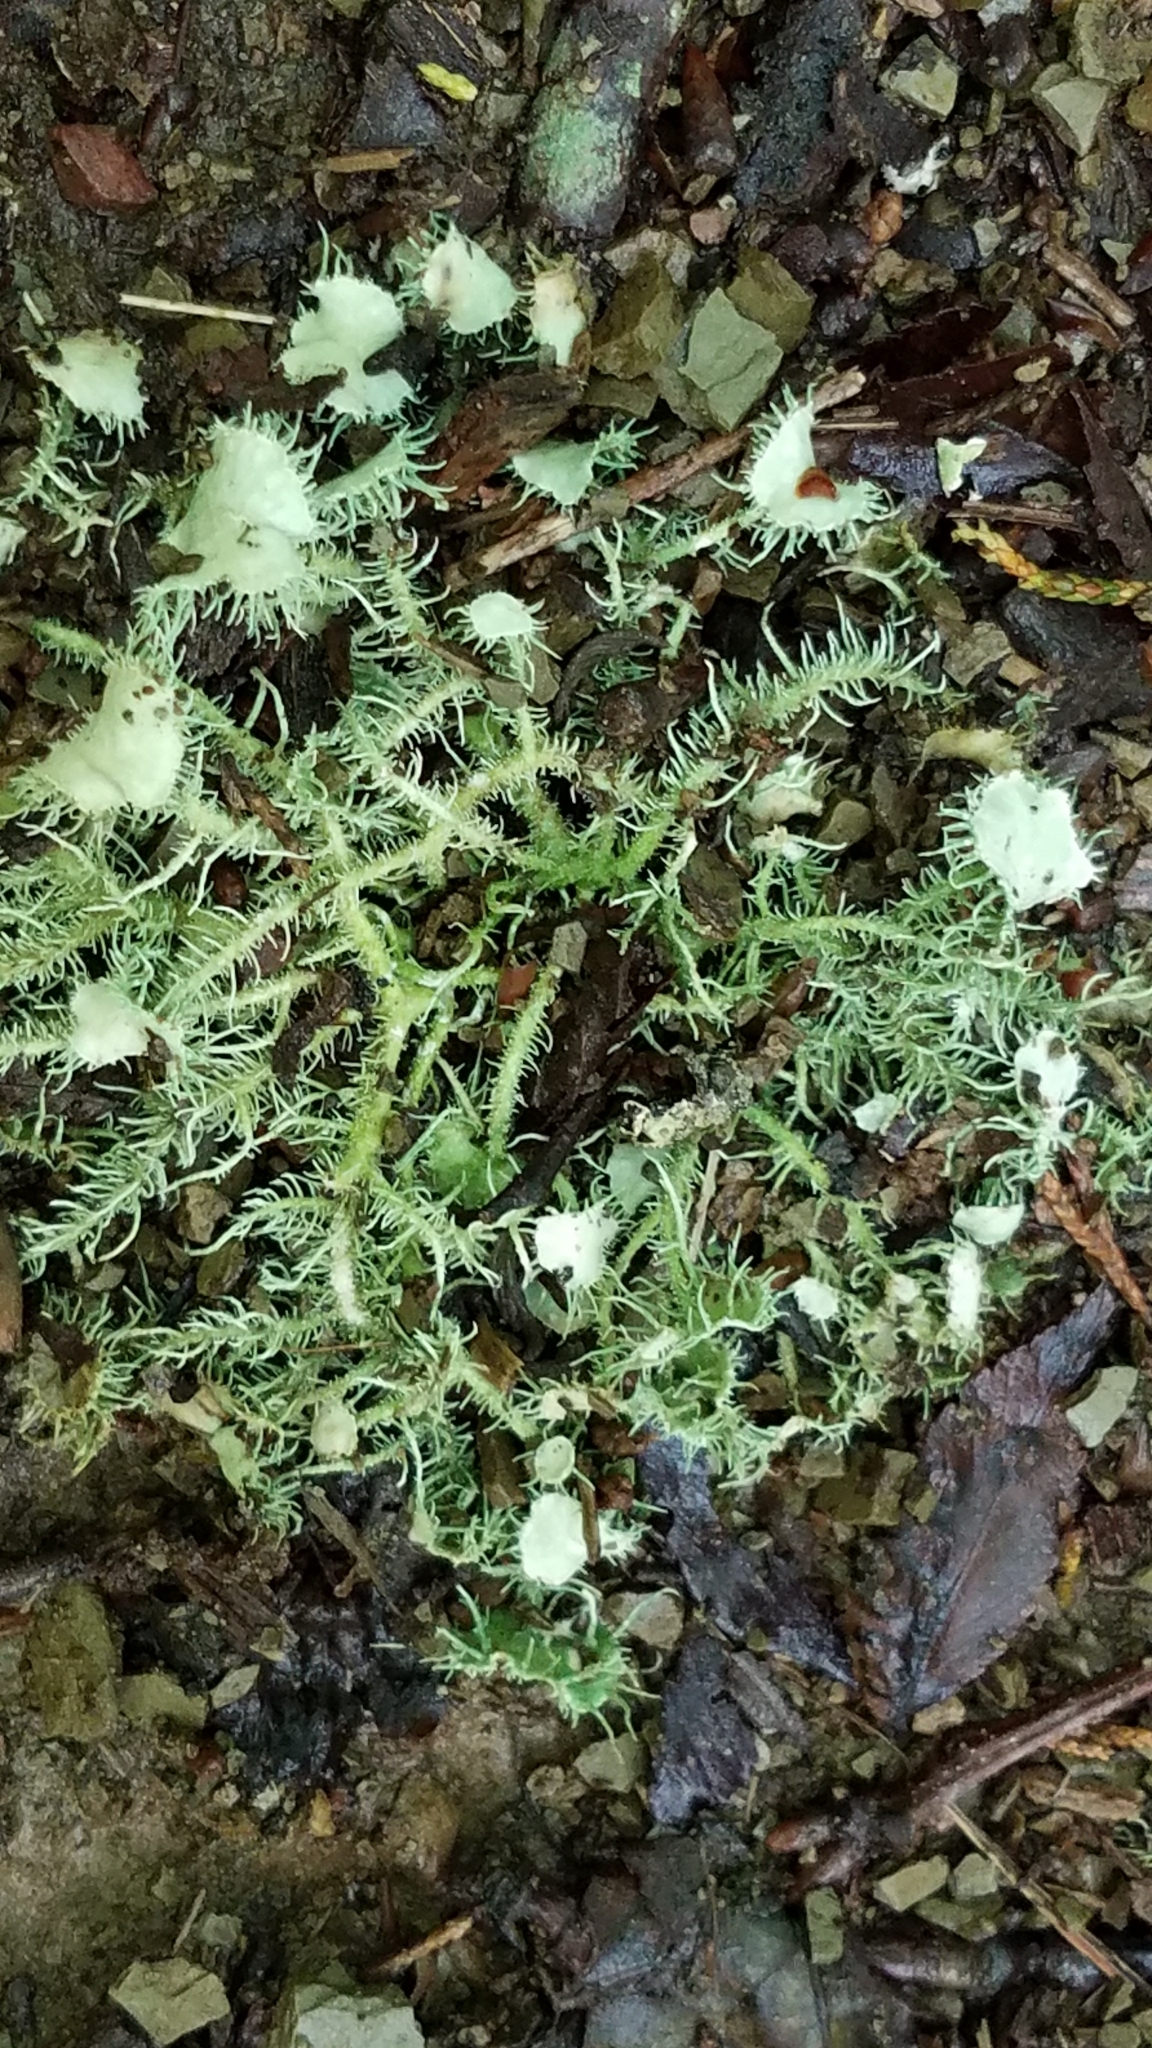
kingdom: Fungi
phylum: Ascomycota
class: Lecanoromycetes
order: Lecanorales
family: Parmeliaceae
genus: Usnea
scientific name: Usnea strigosa
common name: Bushy beard lichen
